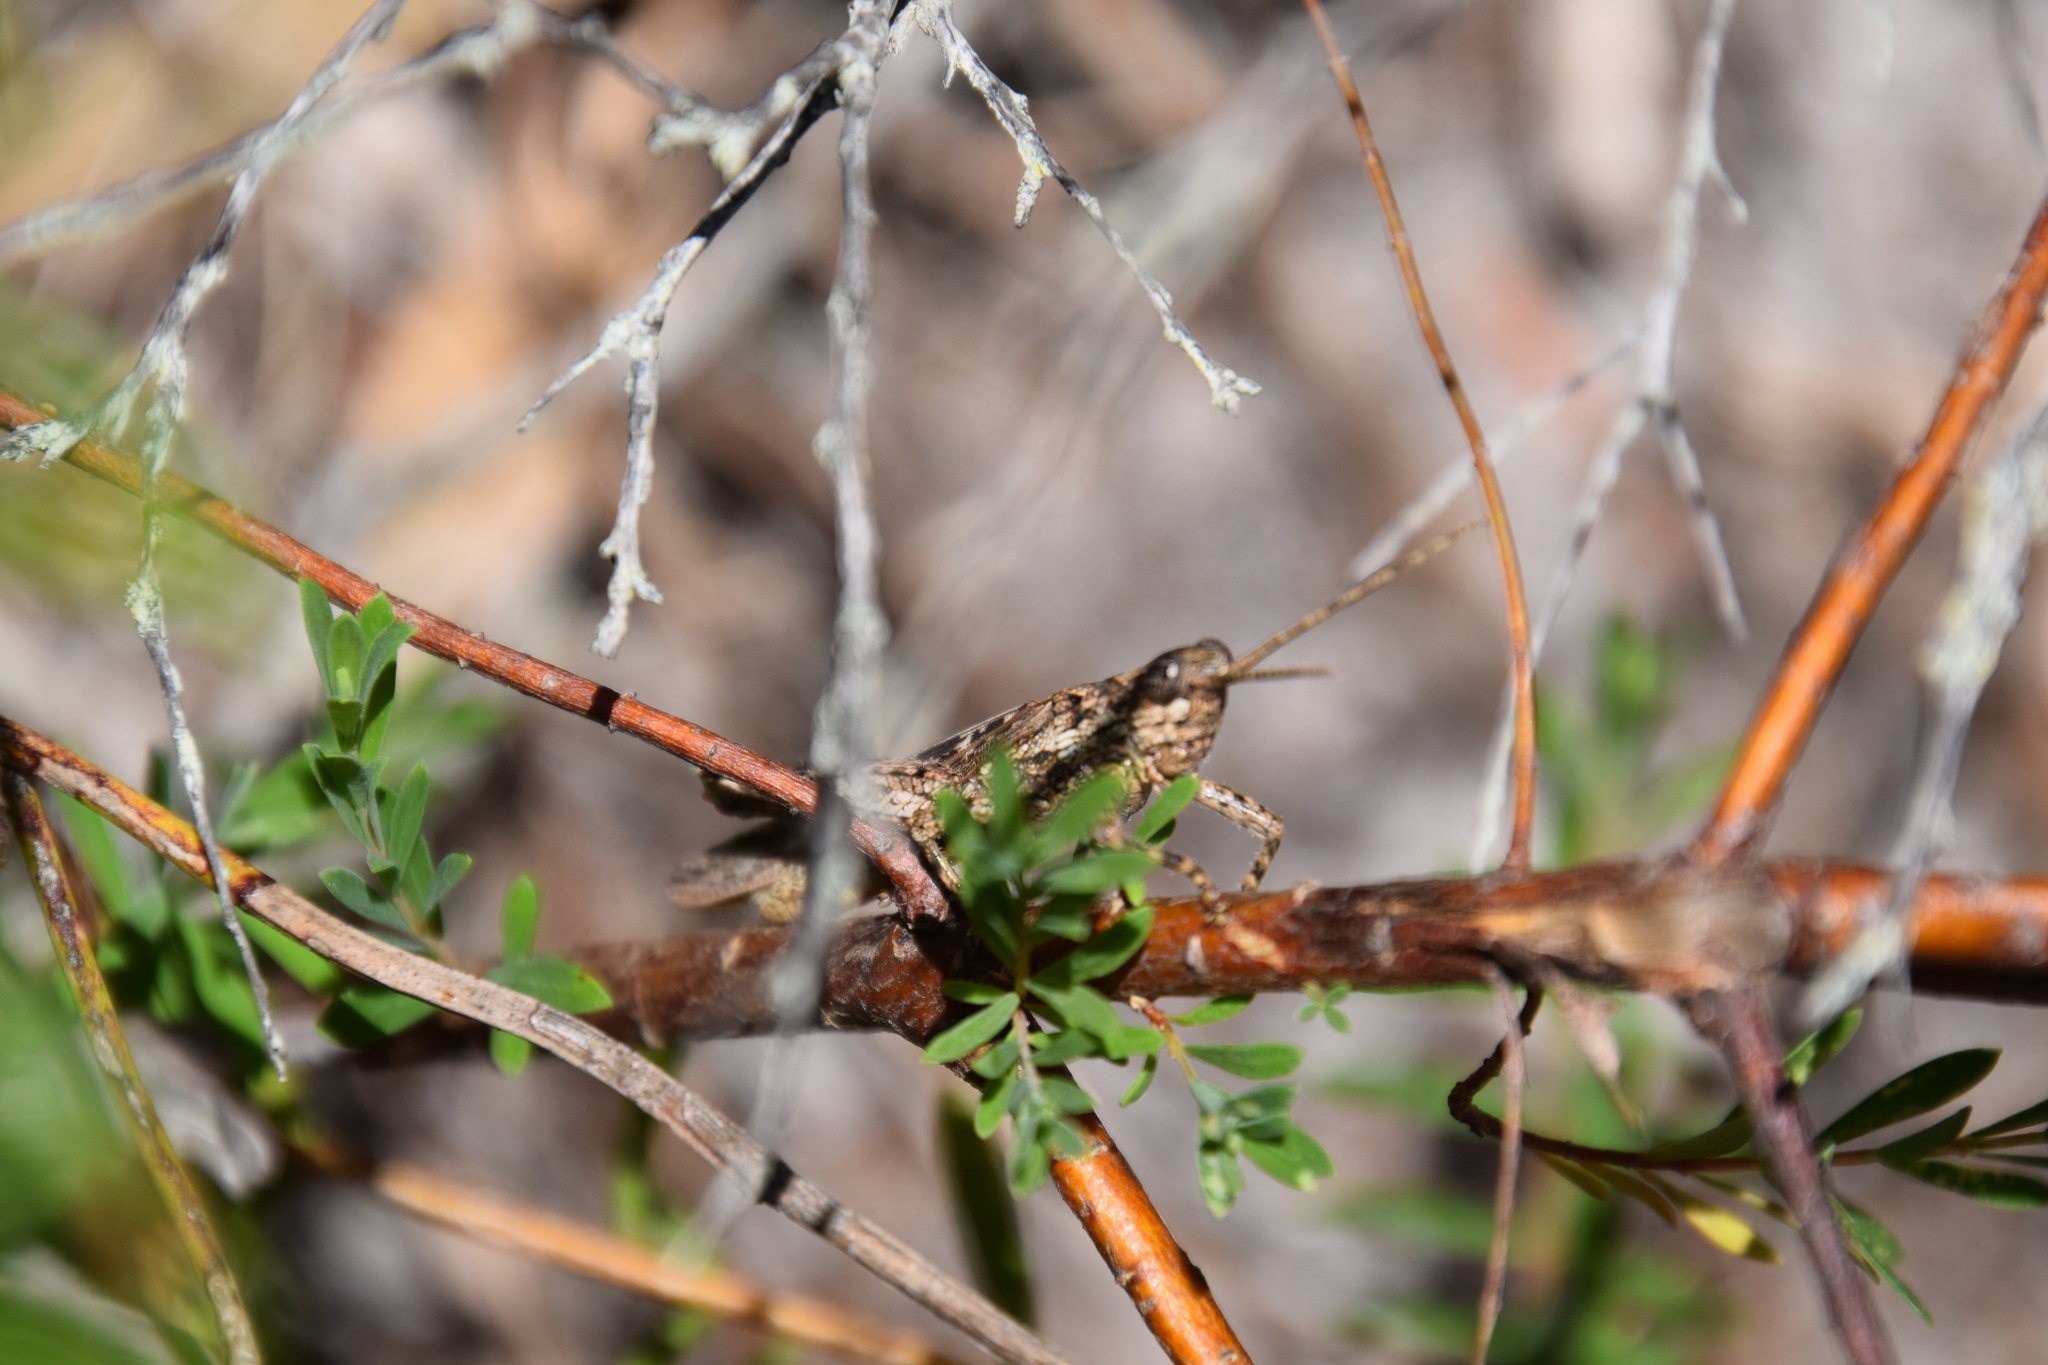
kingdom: Animalia
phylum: Arthropoda
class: Insecta
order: Orthoptera
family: Acrididae
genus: Coryphistes
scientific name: Coryphistes ruricola
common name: Bark-mimicking grasshopper
